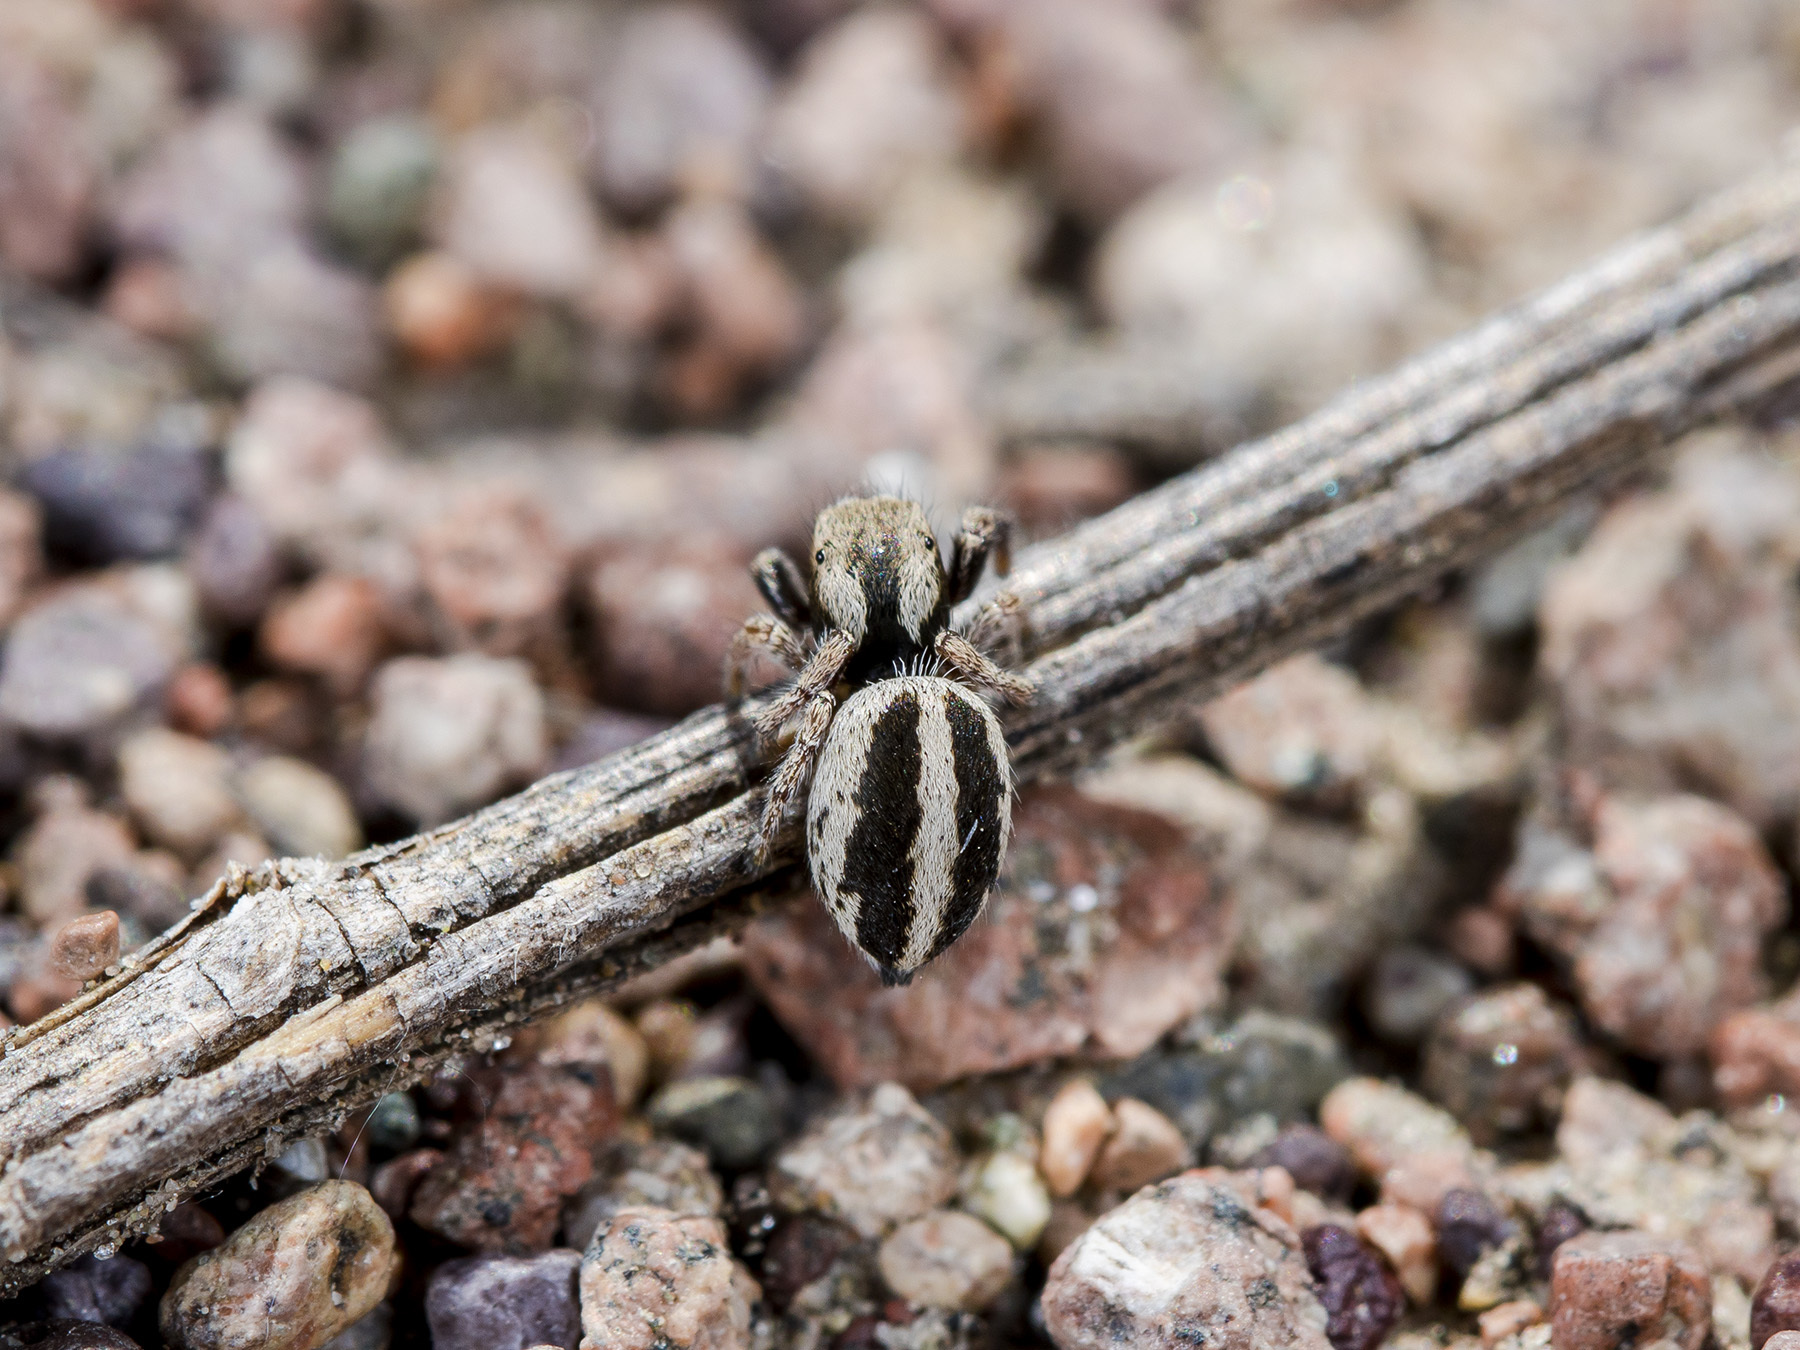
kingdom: Animalia
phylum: Arthropoda
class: Arachnida
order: Araneae
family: Salticidae
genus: Pellenes
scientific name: Pellenes epularis
